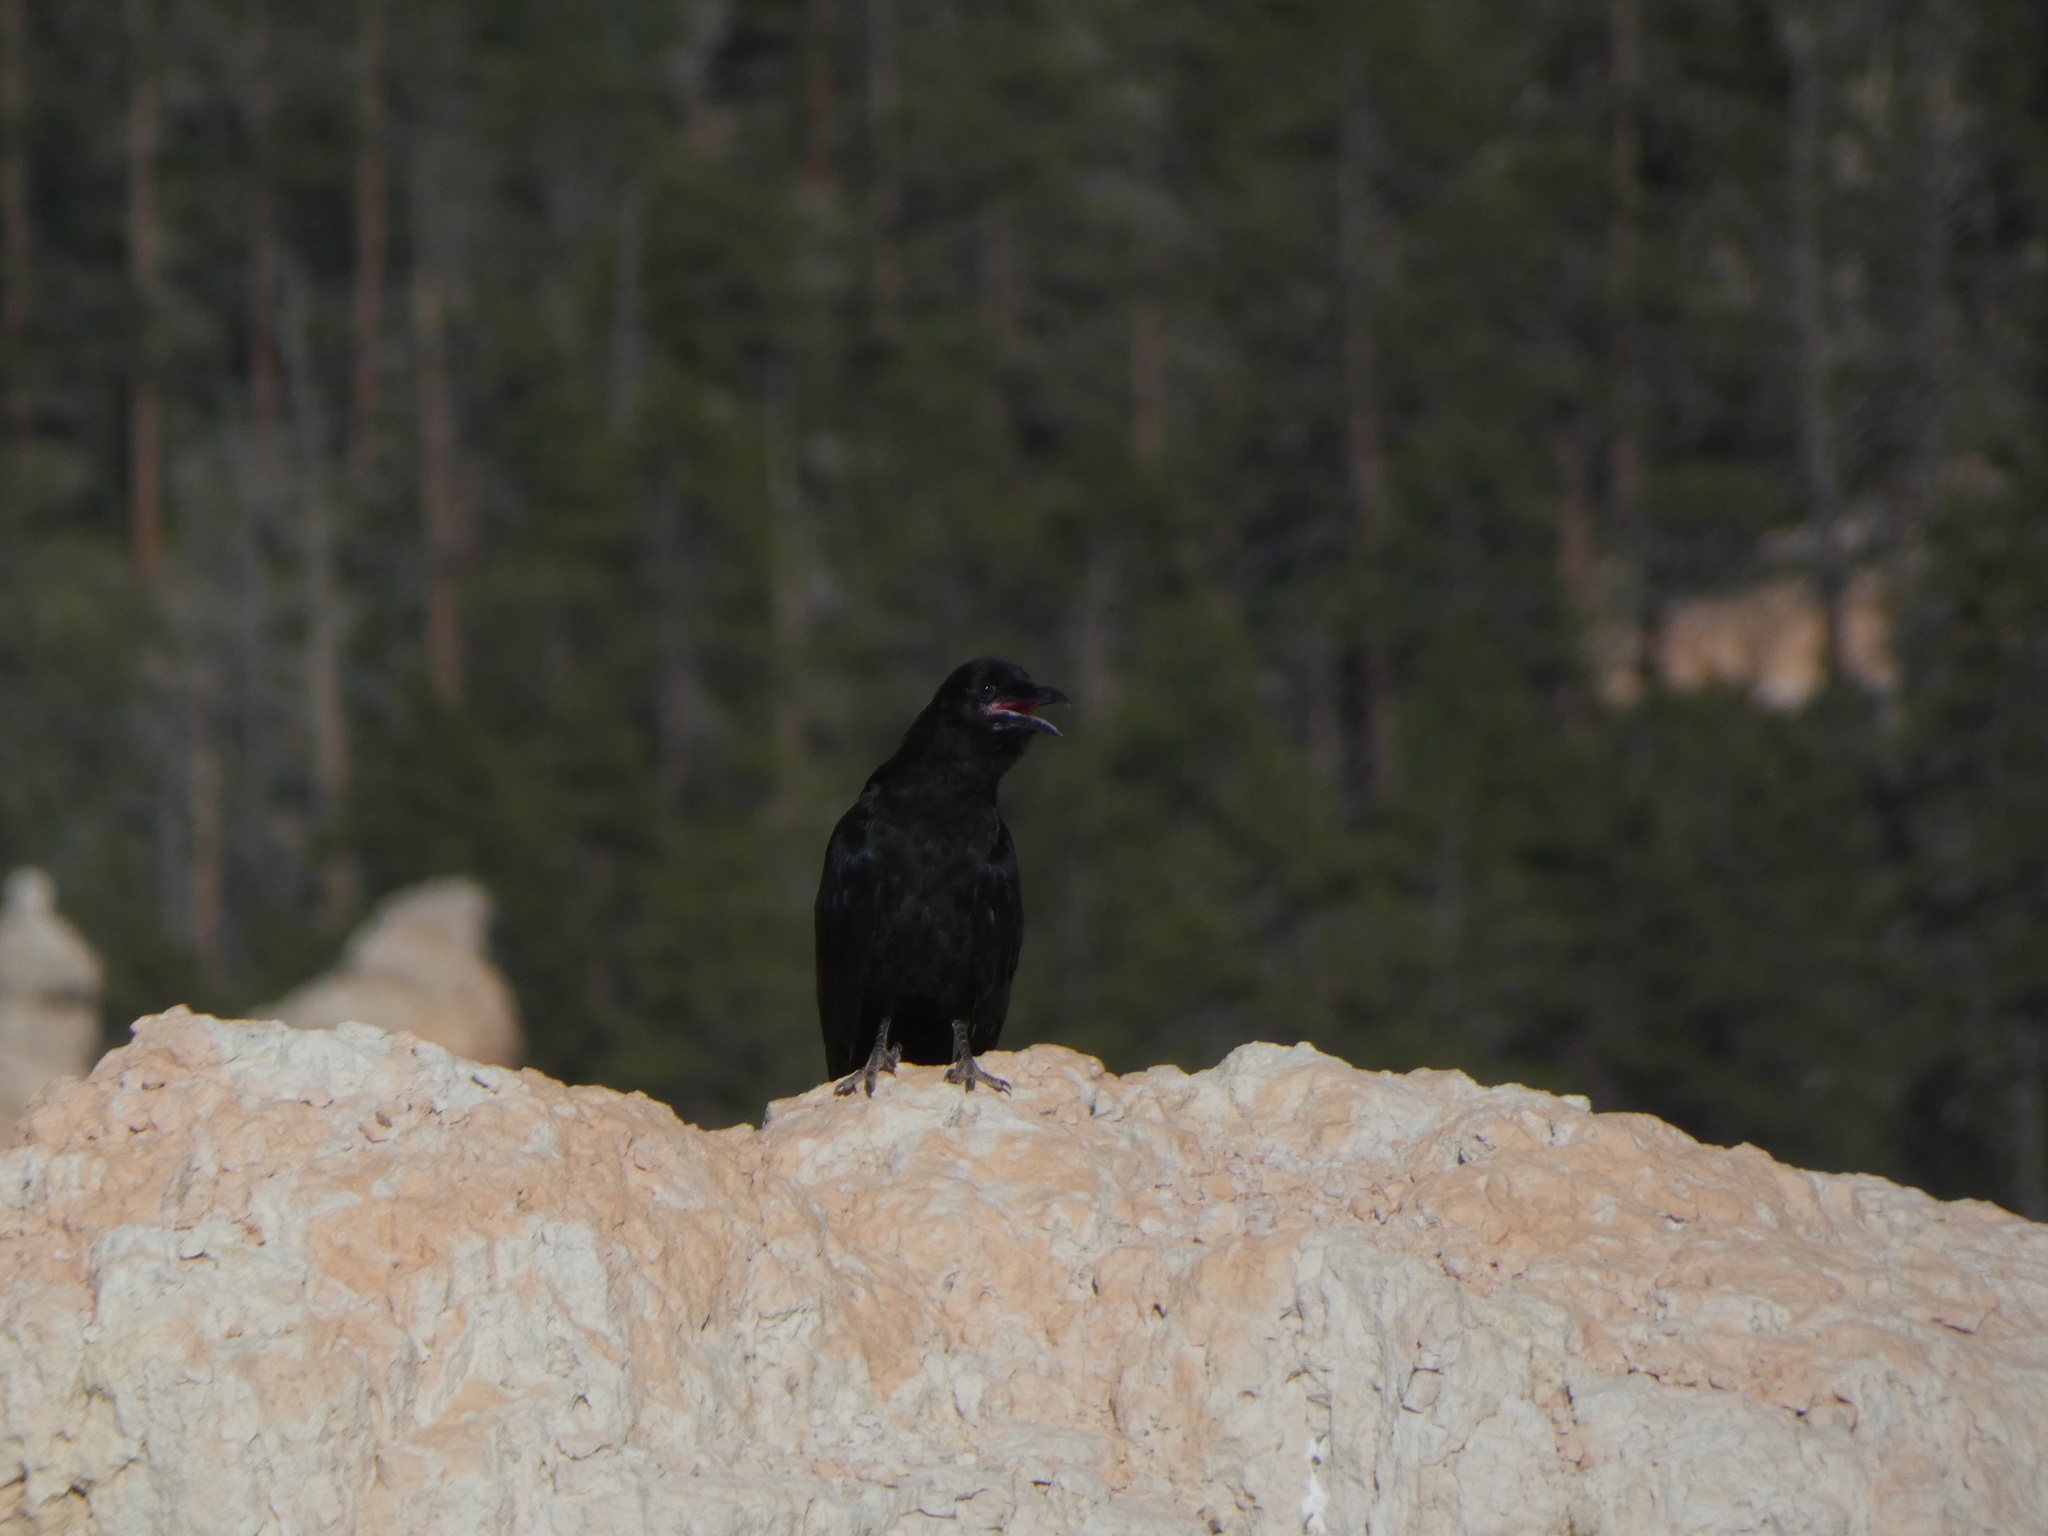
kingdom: Animalia
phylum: Chordata
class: Aves
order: Passeriformes
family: Corvidae
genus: Corvus
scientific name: Corvus corax
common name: Common raven
